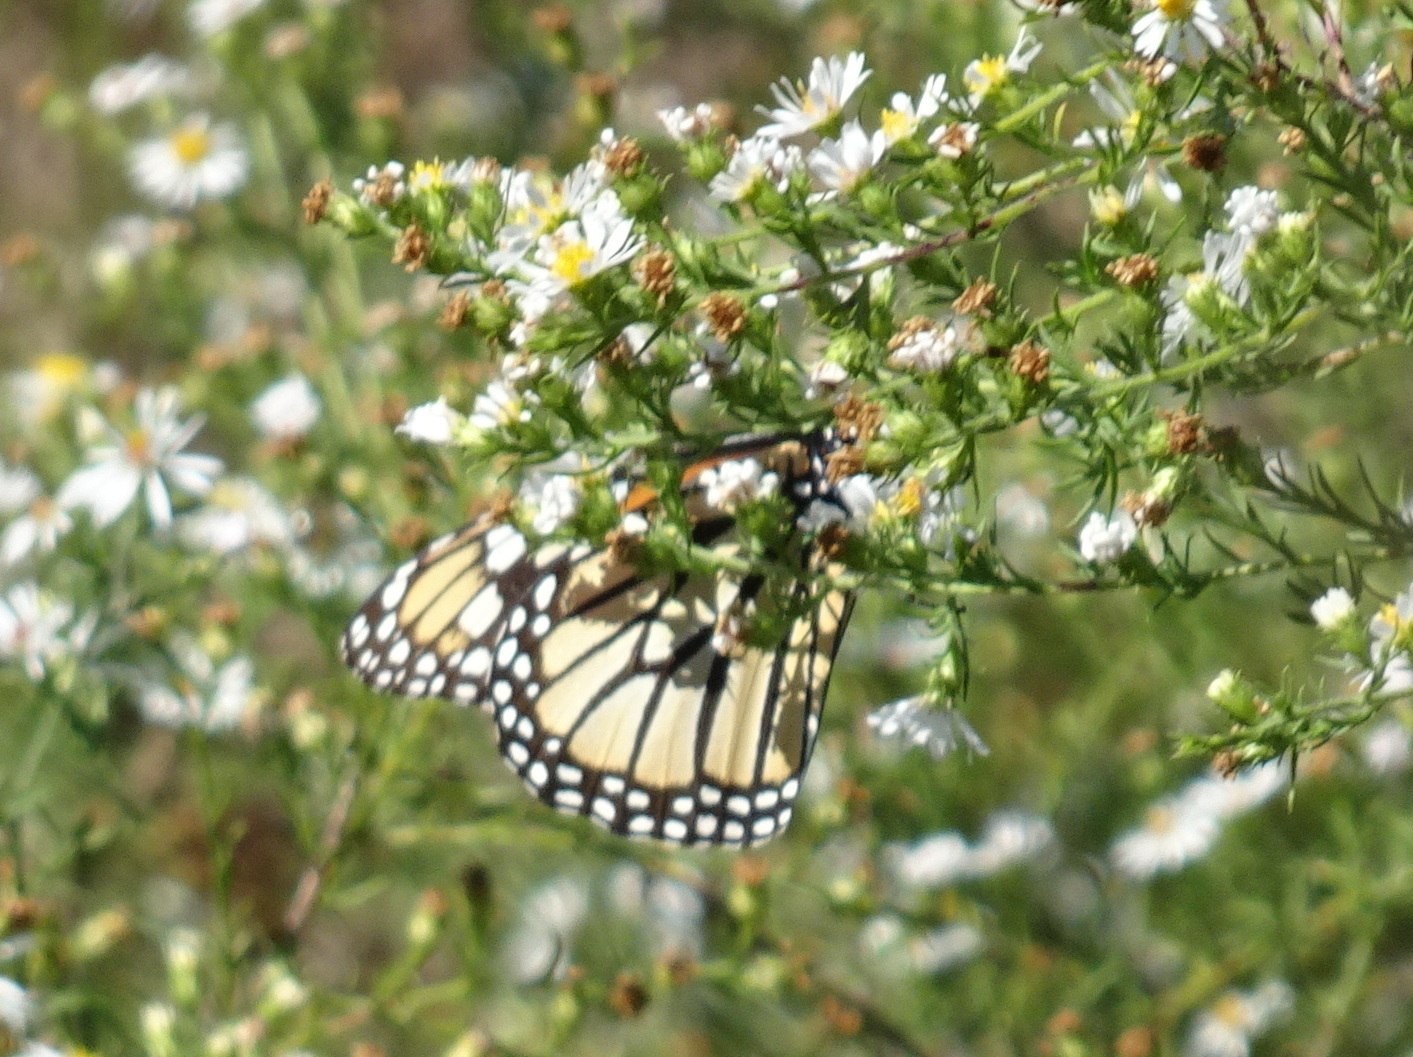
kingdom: Animalia
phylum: Arthropoda
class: Insecta
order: Lepidoptera
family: Nymphalidae
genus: Danaus
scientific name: Danaus plexippus
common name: Monarch
